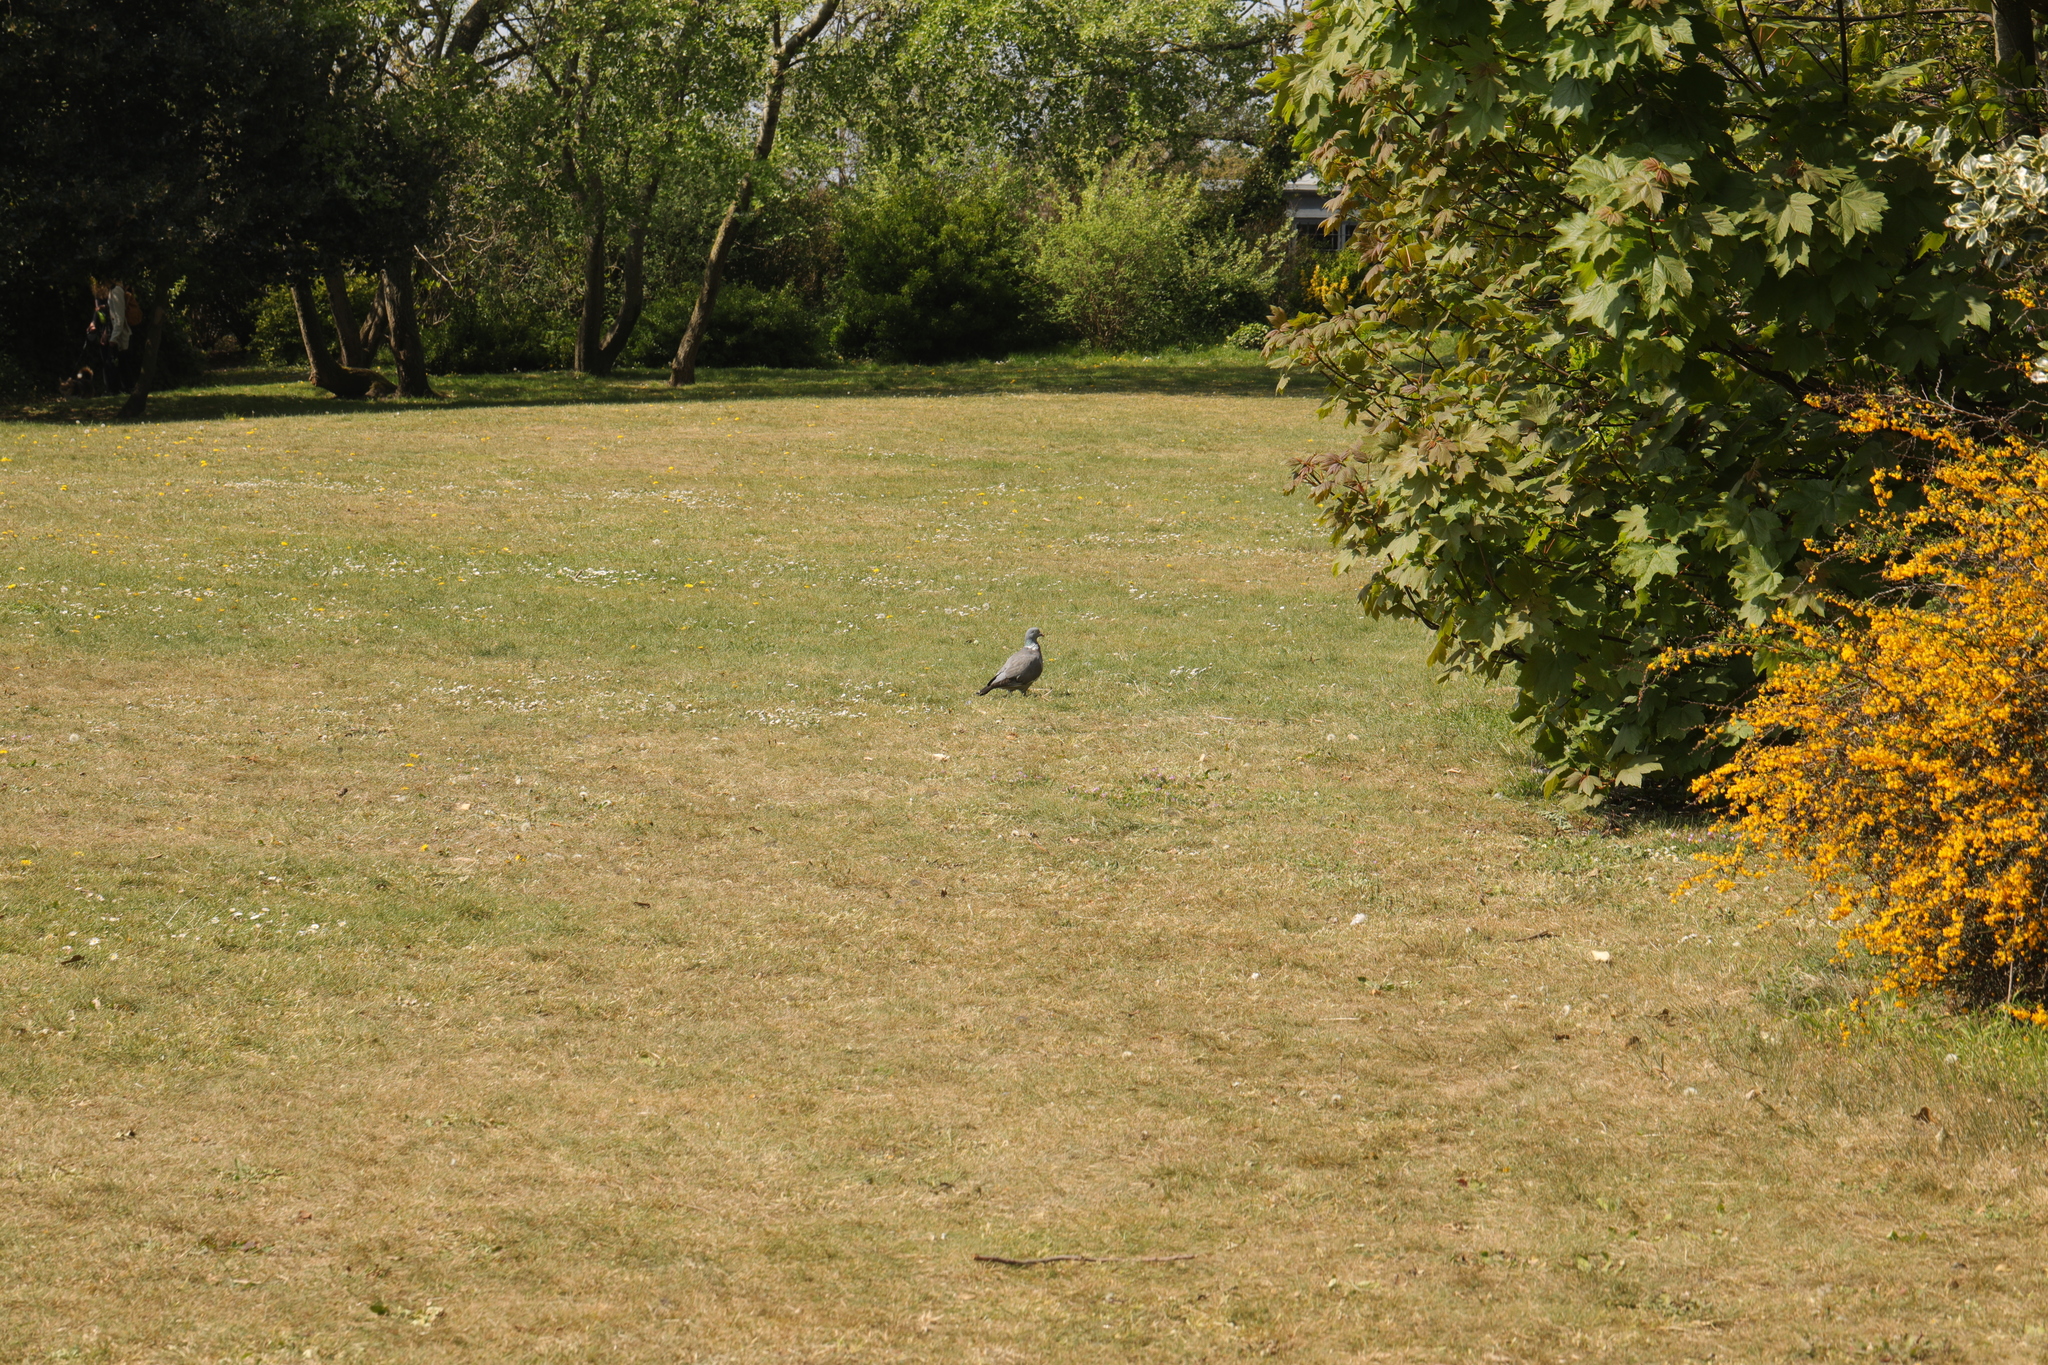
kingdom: Animalia
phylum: Chordata
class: Aves
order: Columbiformes
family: Columbidae
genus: Columba
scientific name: Columba palumbus
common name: Common wood pigeon
